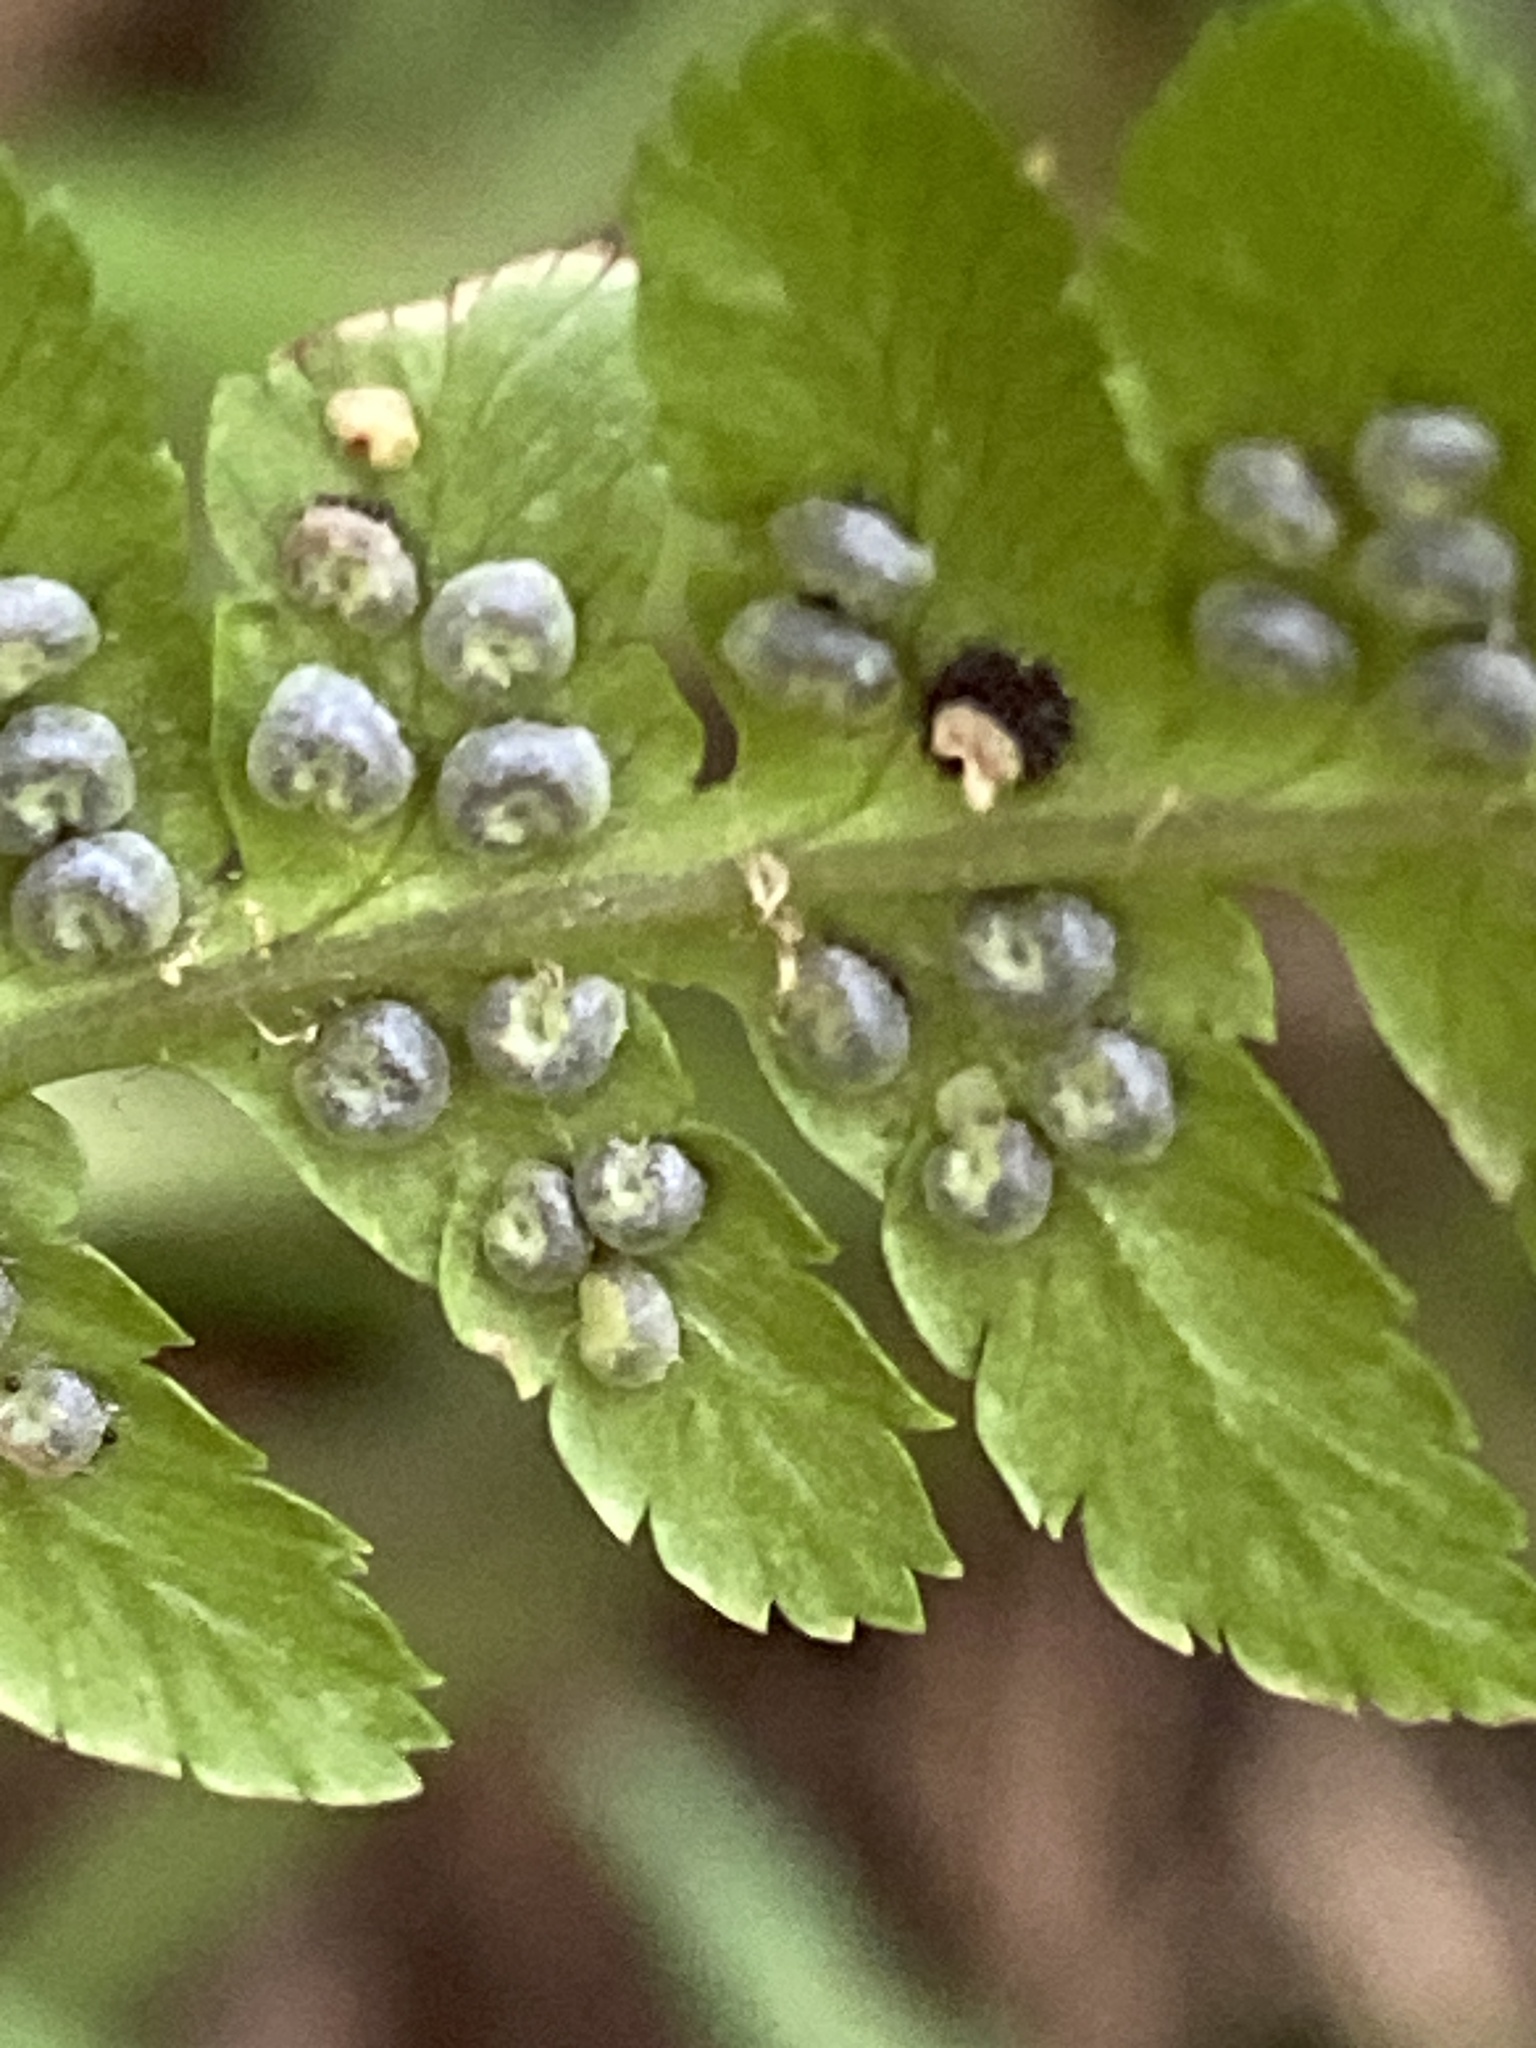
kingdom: Plantae
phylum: Tracheophyta
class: Polypodiopsida
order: Polypodiales
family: Dryopteridaceae
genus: Dryopteris
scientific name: Dryopteris filix-mas
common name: Male fern
